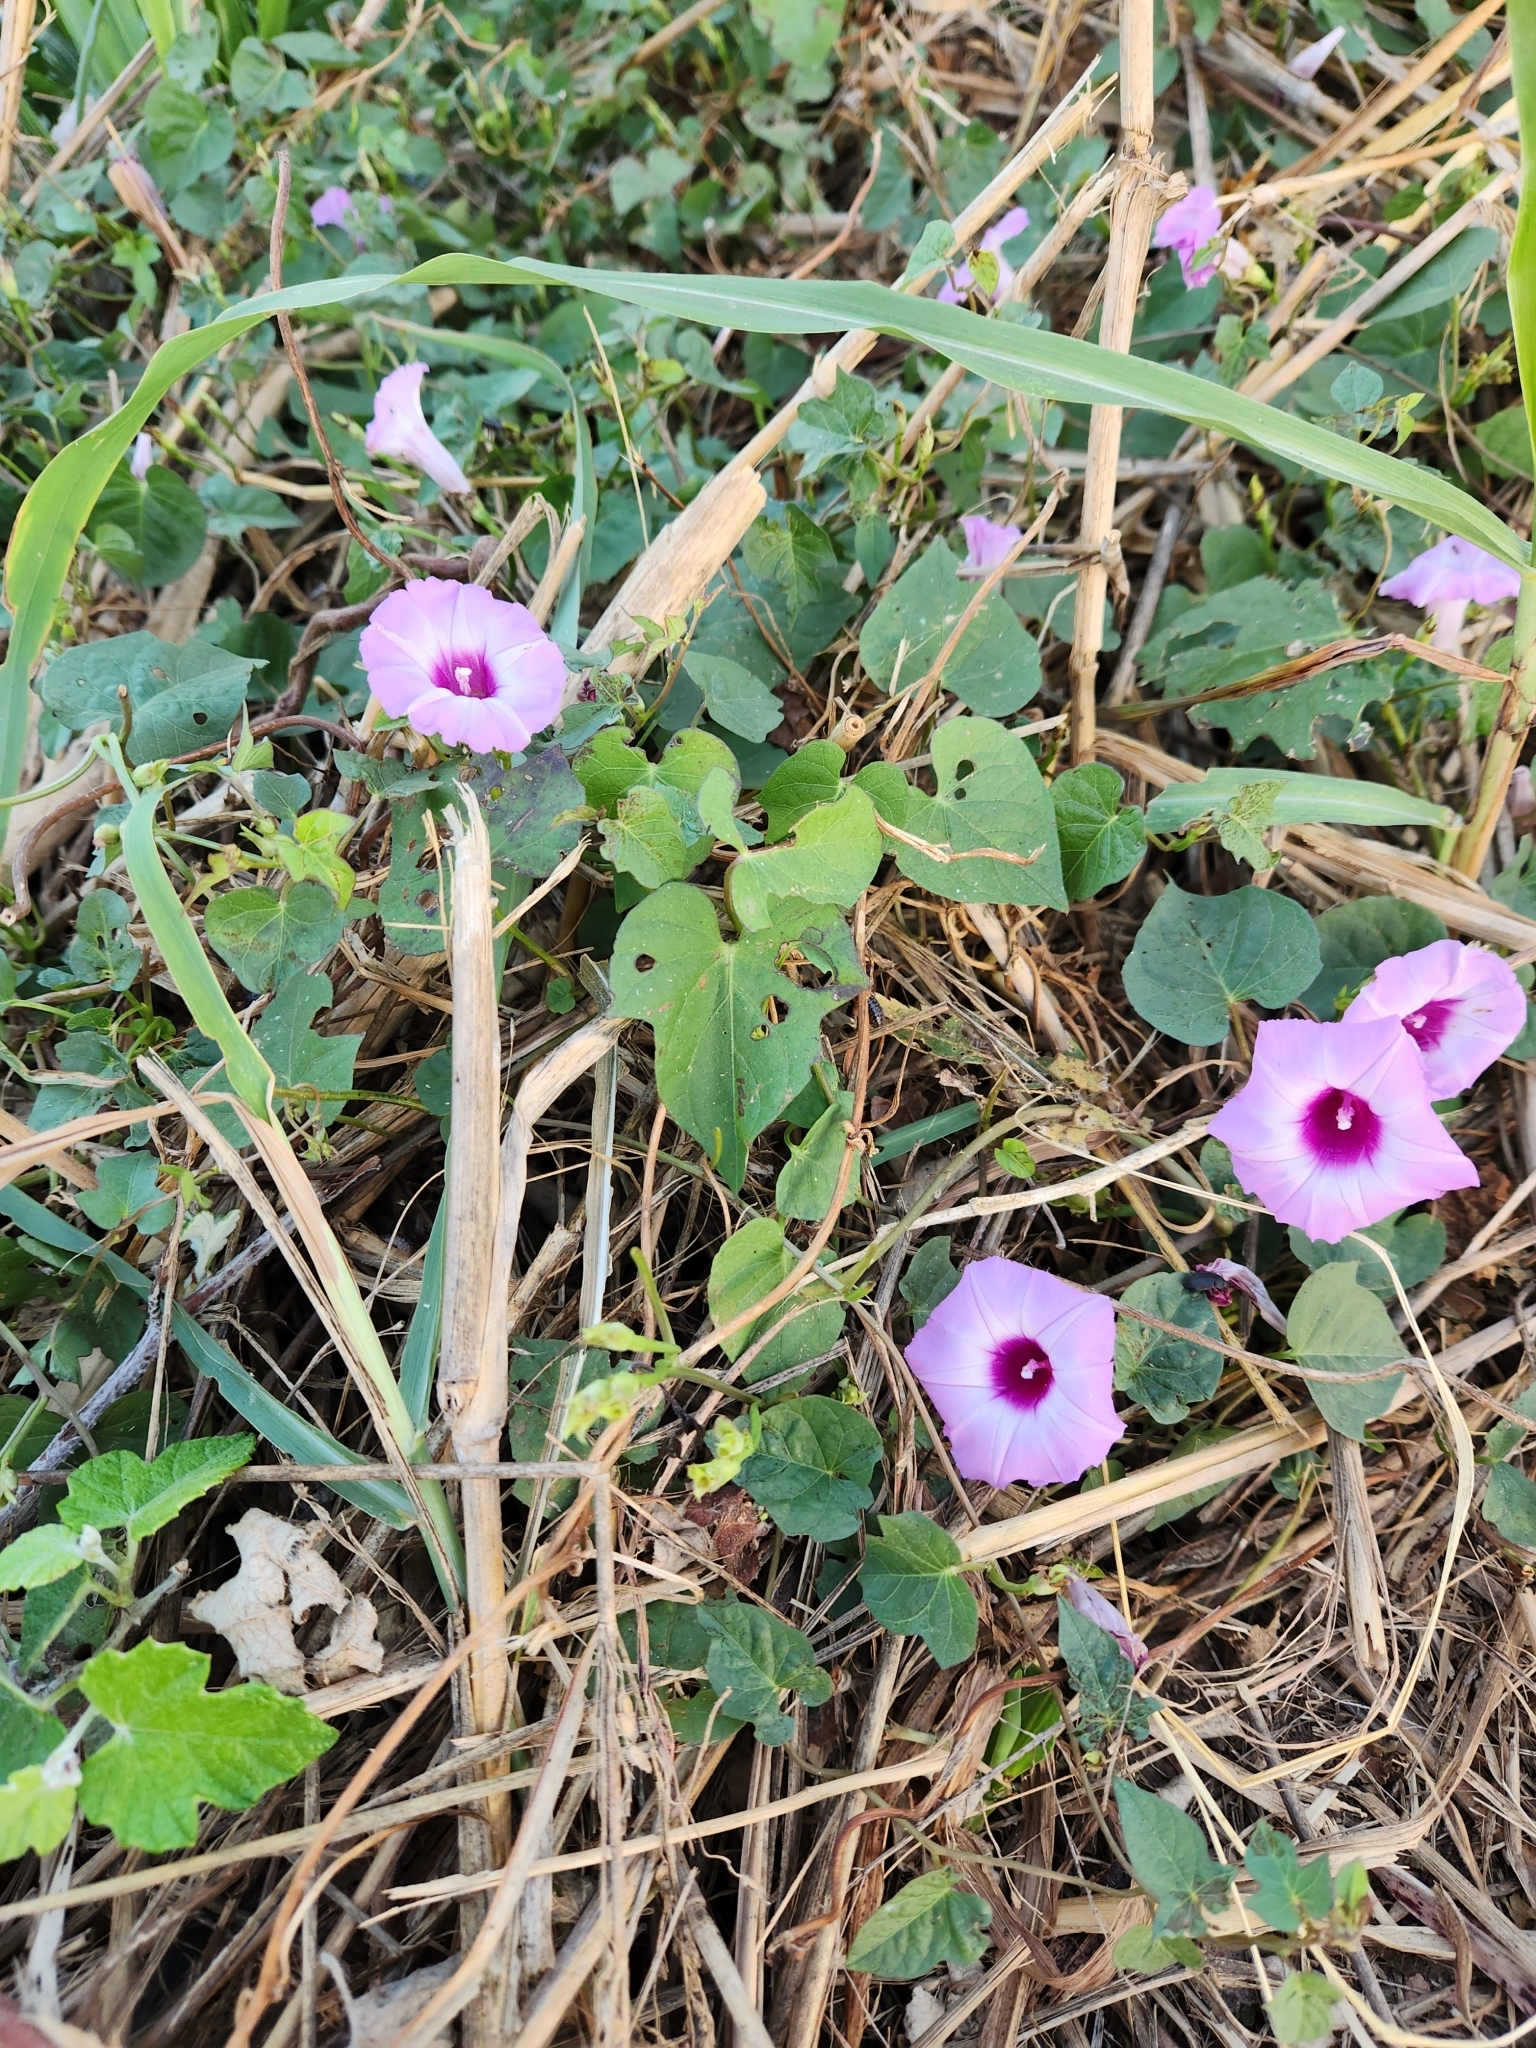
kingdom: Plantae
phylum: Tracheophyta
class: Magnoliopsida
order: Solanales
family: Convolvulaceae
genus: Ipomoea
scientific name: Ipomoea cordatotriloba
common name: Cotton morning glory
